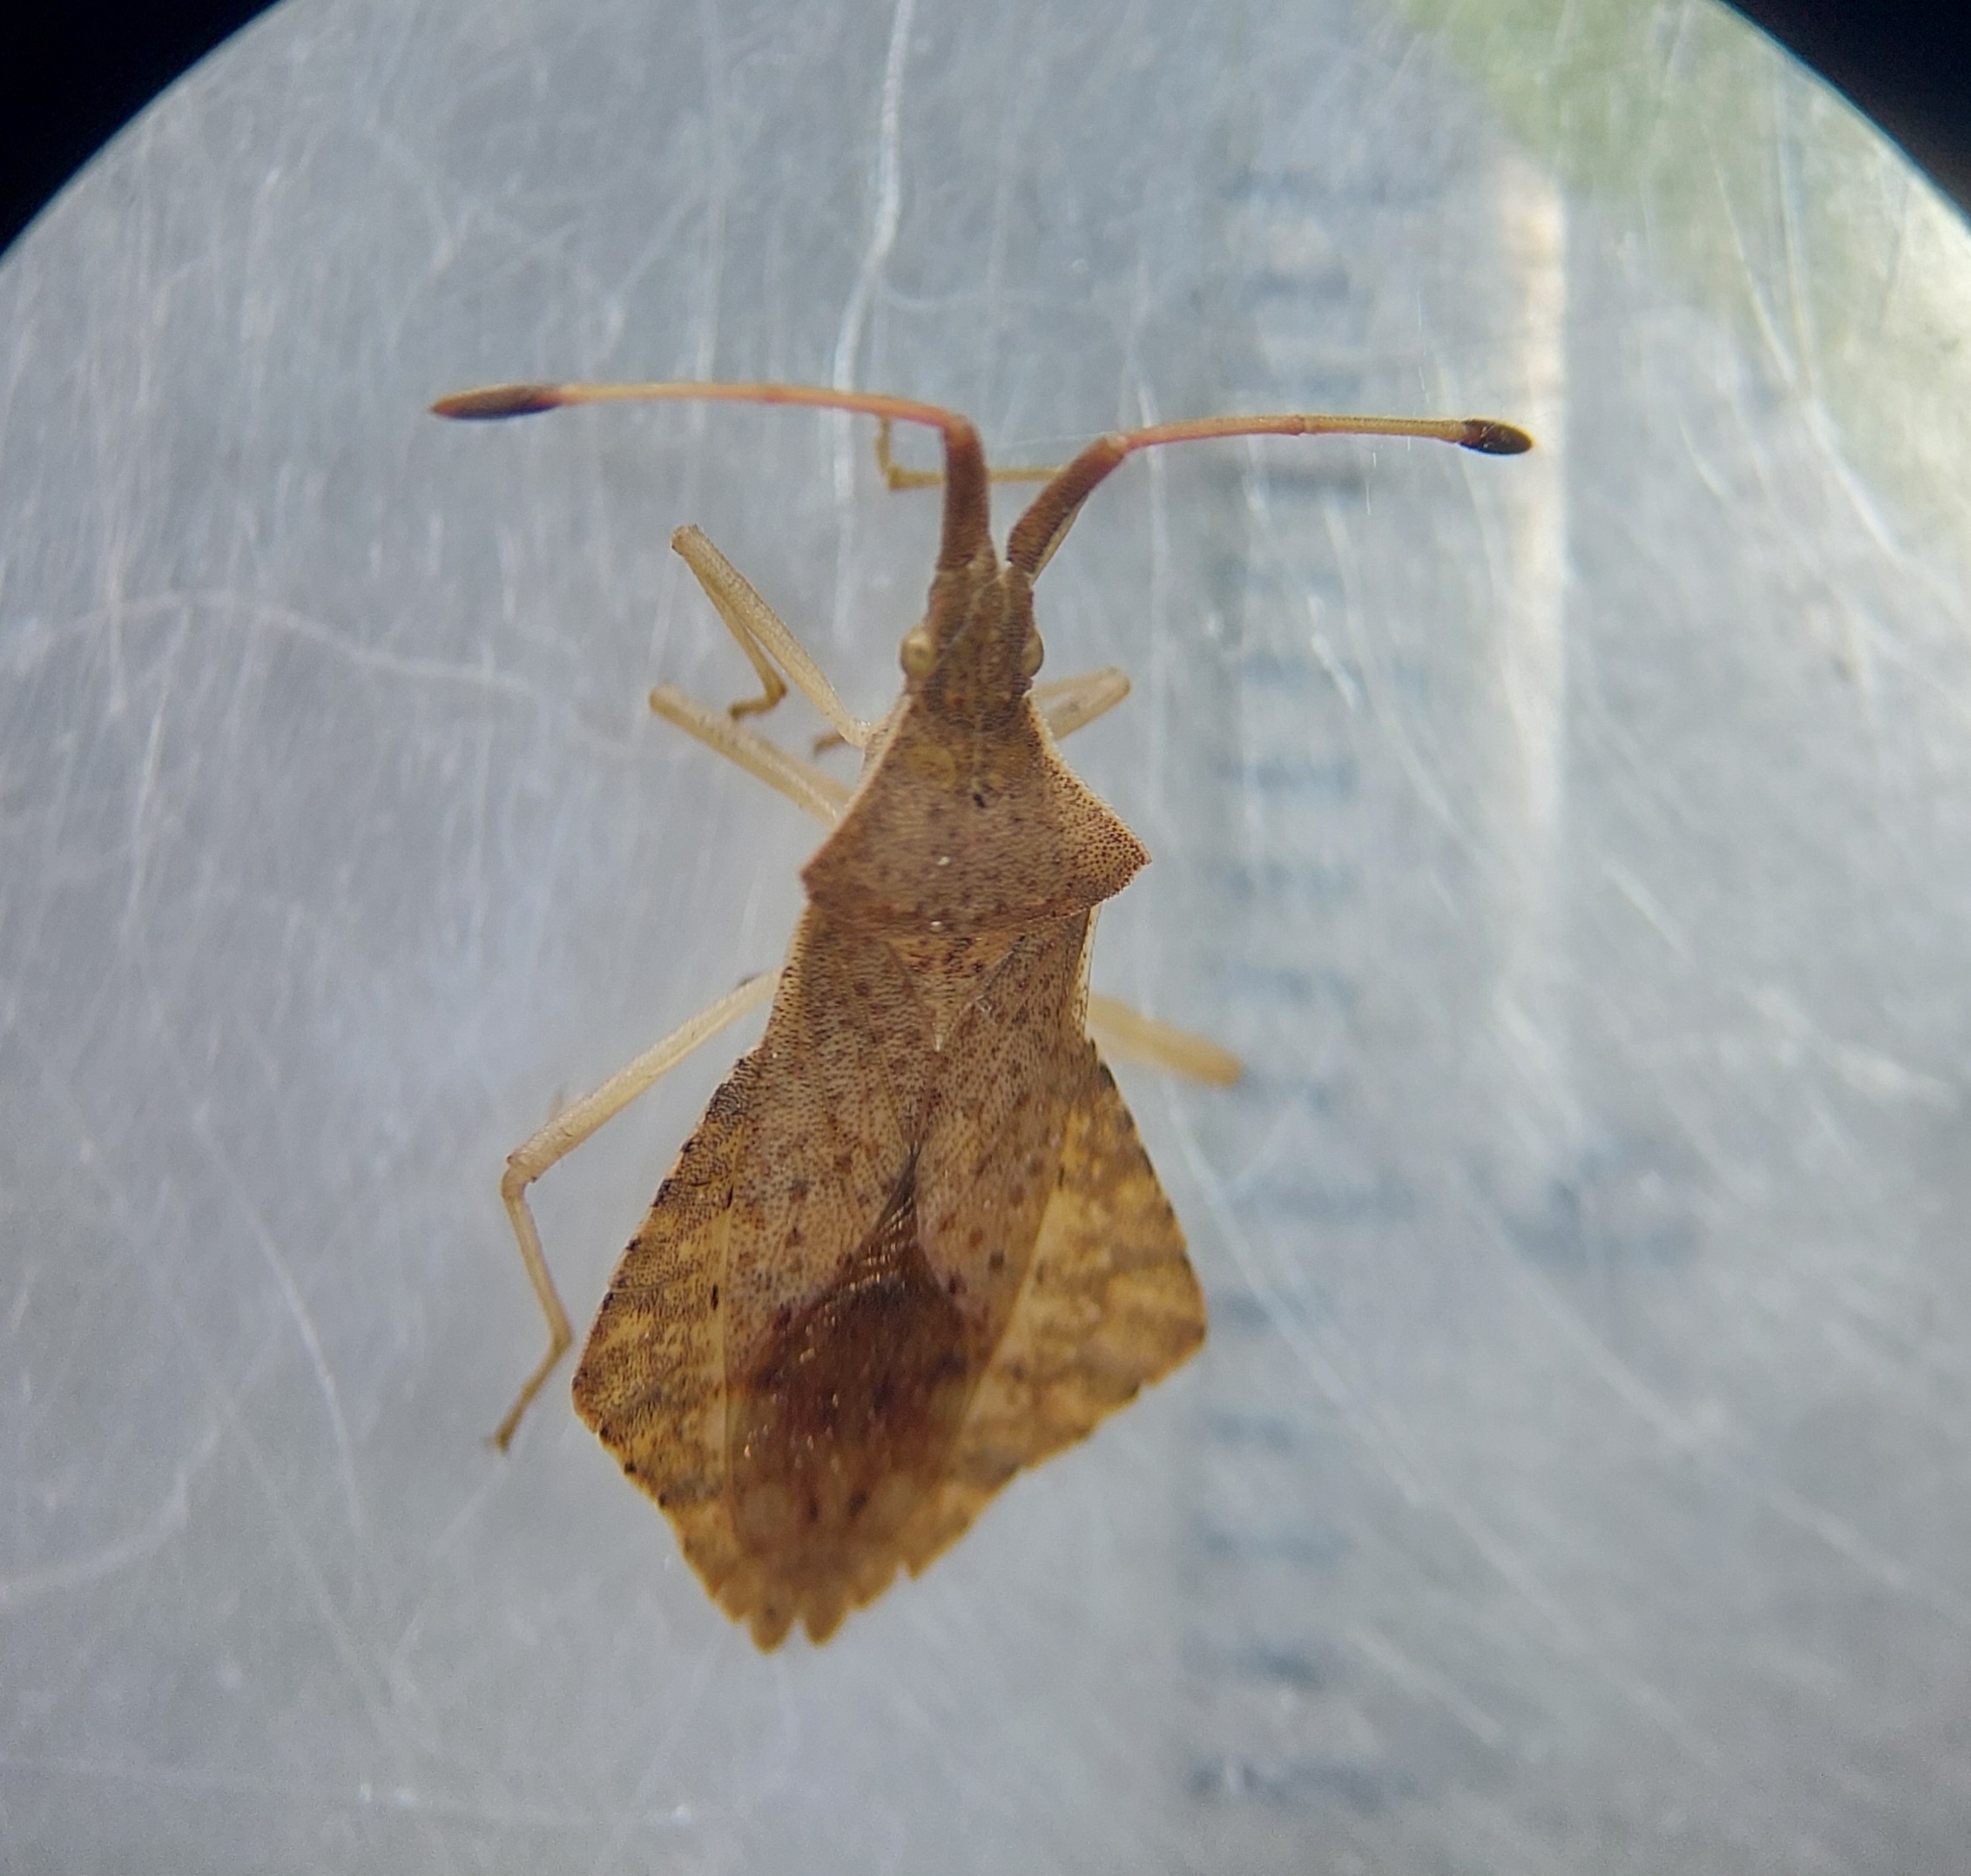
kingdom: Animalia
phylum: Arthropoda
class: Insecta
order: Hemiptera
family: Coreidae
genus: Syromastus
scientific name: Syromastus rhombeus
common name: Rhombic leatherbug
